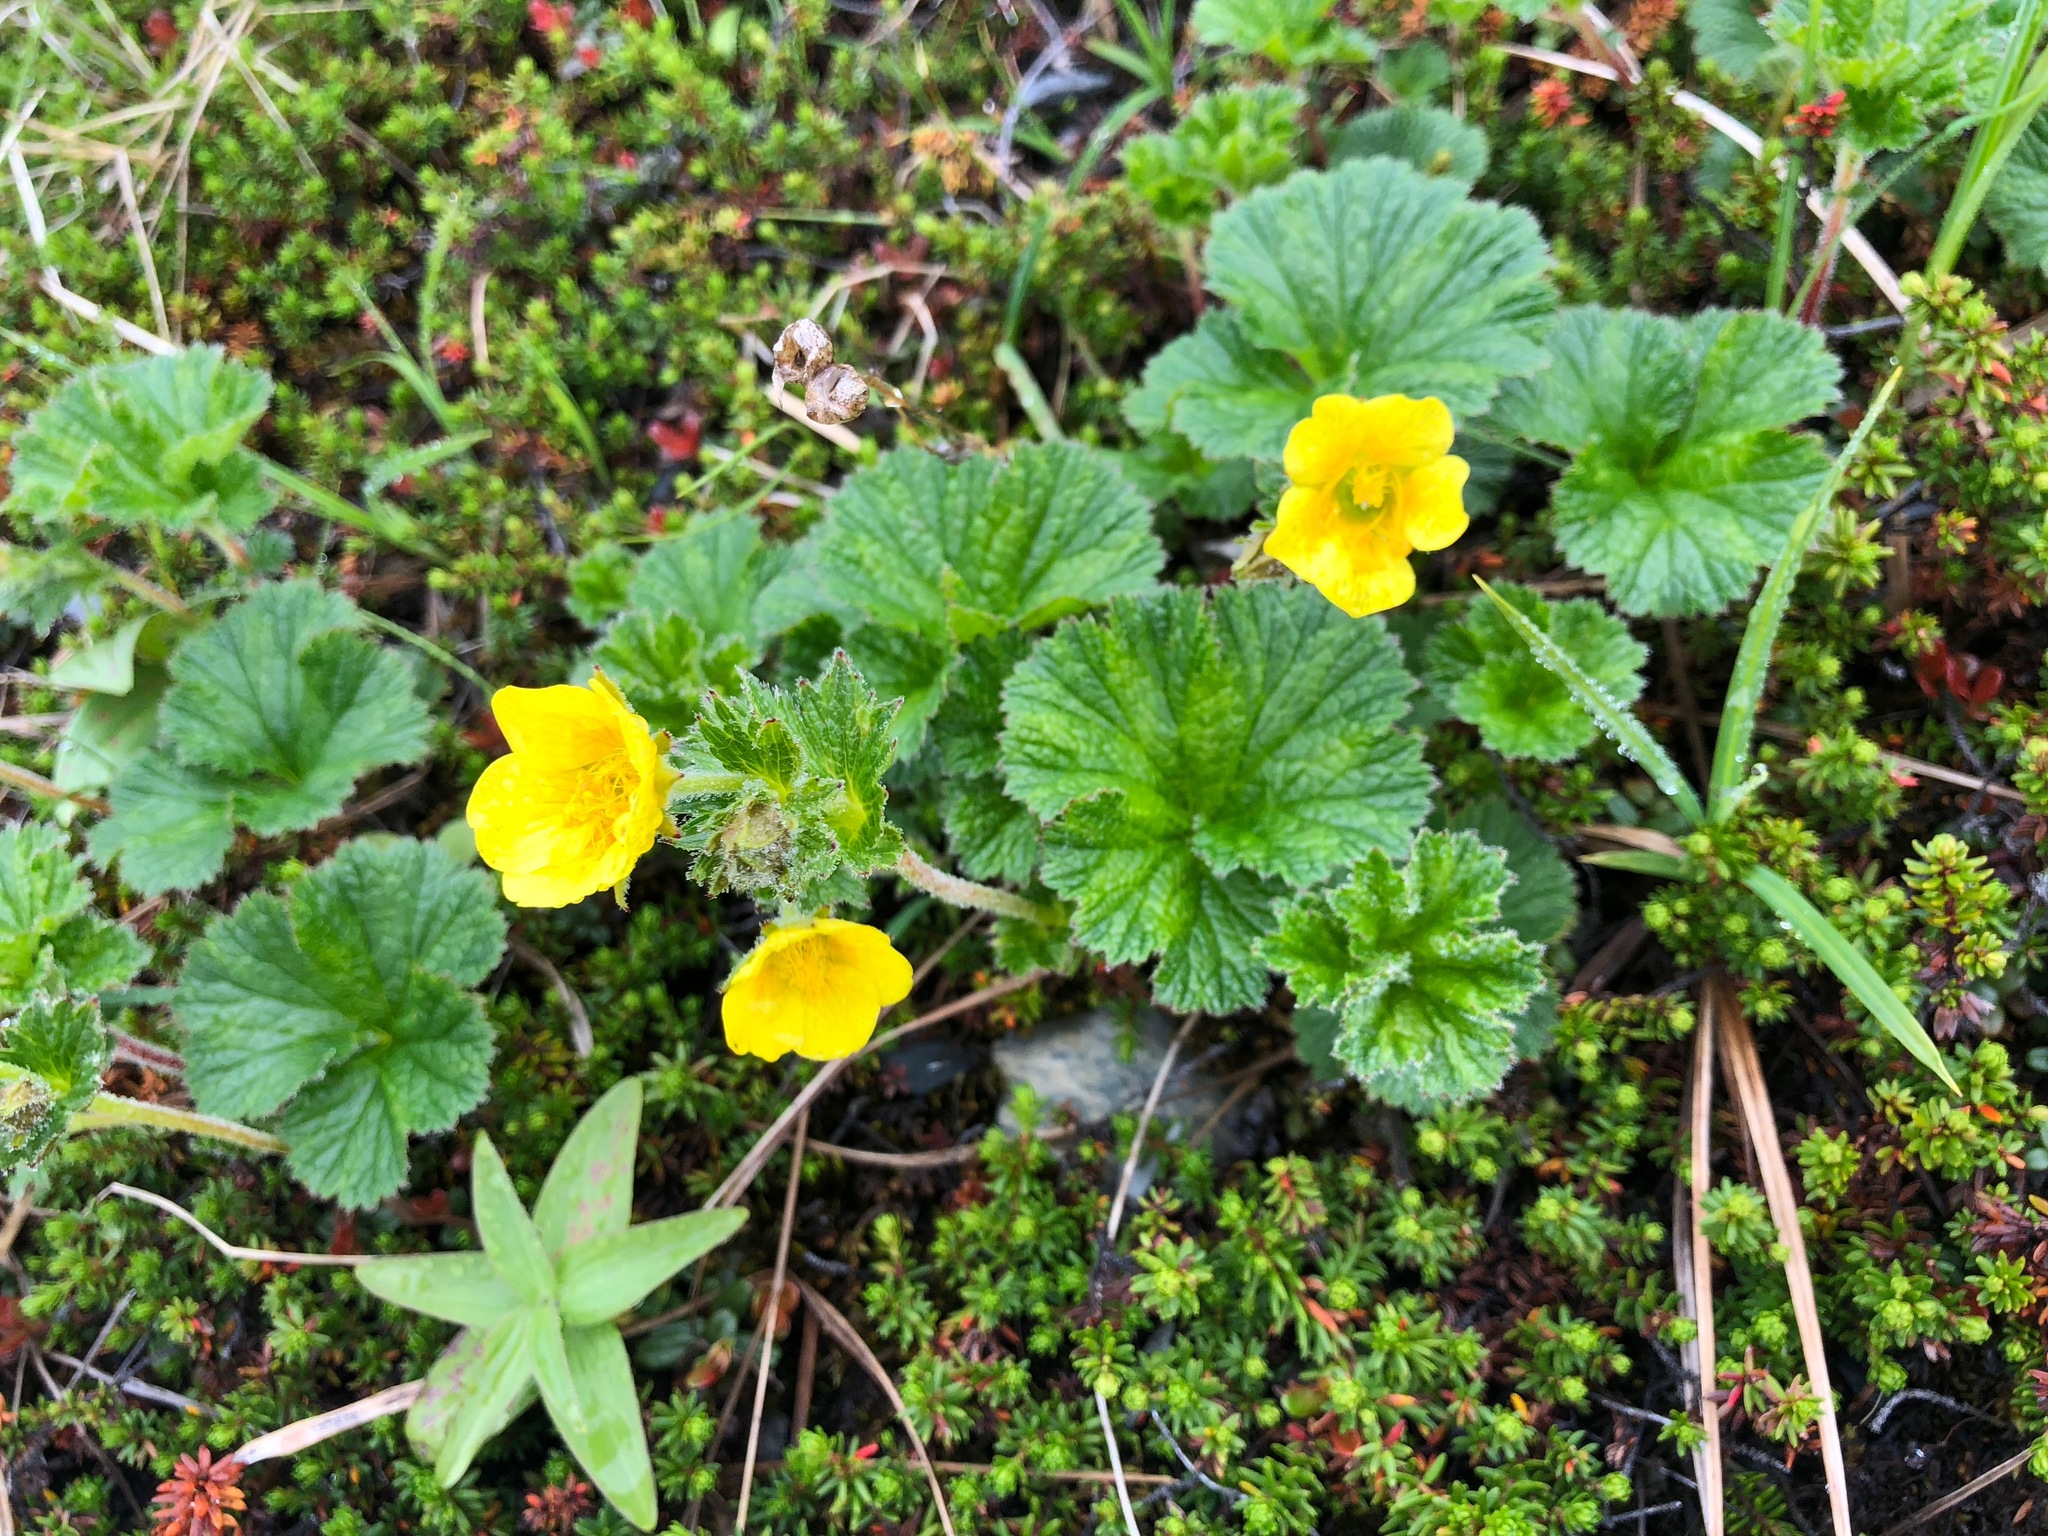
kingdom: Plantae
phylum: Tracheophyta
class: Magnoliopsida
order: Rosales
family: Rosaceae
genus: Geum
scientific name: Geum calthifolium
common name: Caltha-leaved avens
